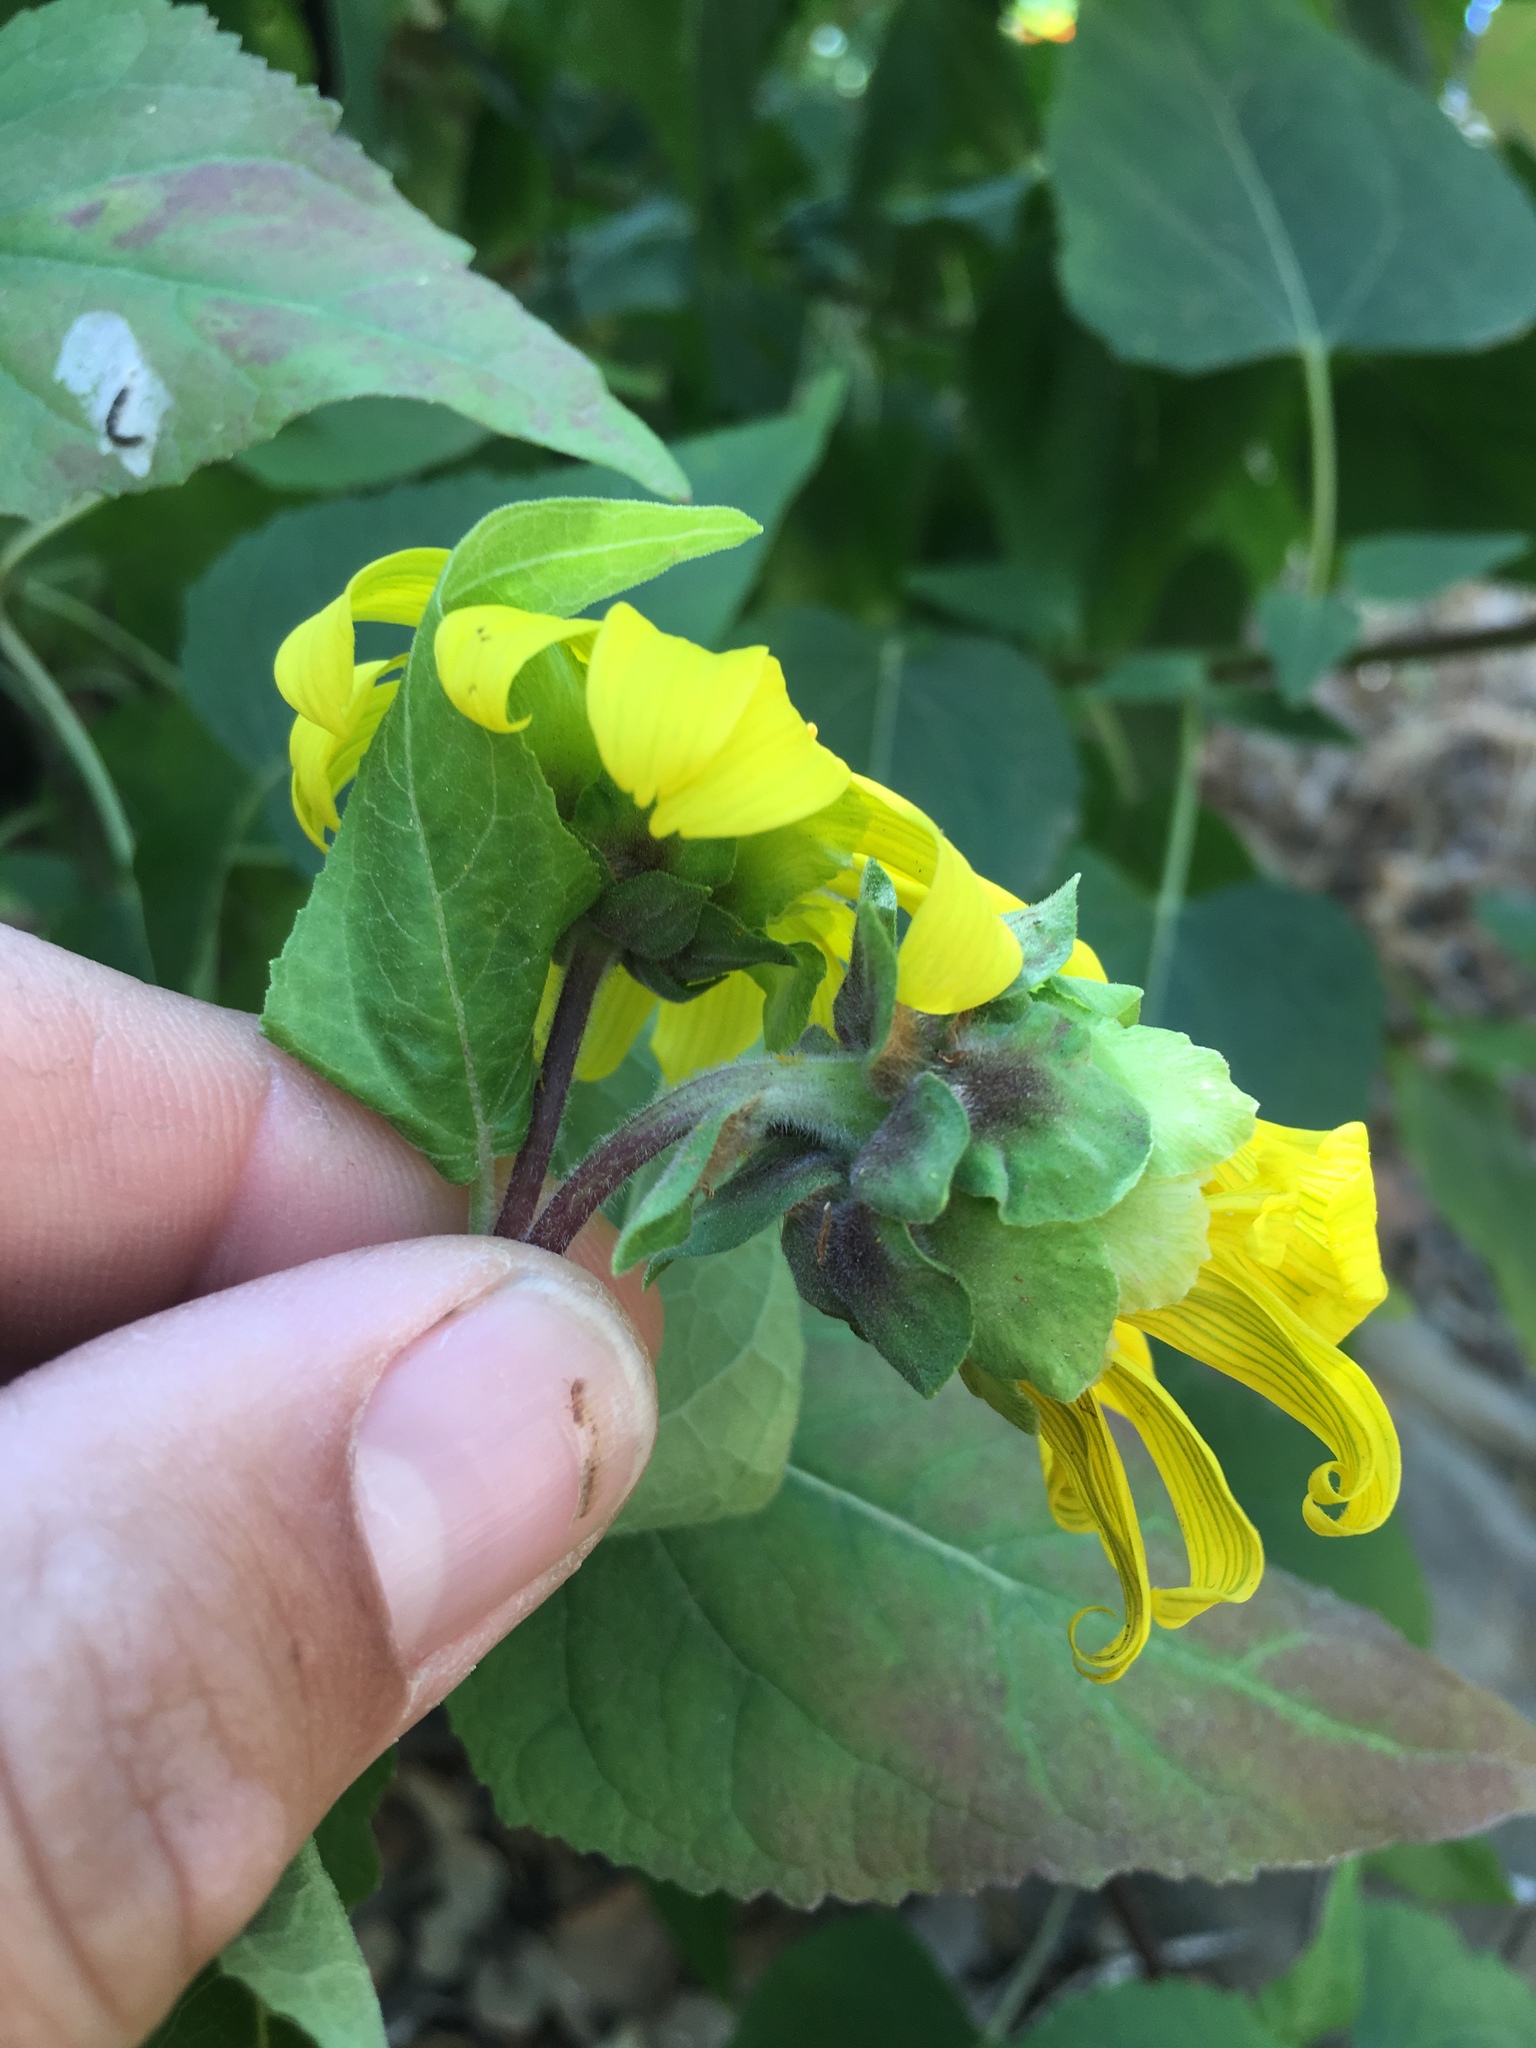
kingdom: Plantae
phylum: Tracheophyta
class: Magnoliopsida
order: Asterales
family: Asteraceae
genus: Venegasia
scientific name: Venegasia carpesioides
